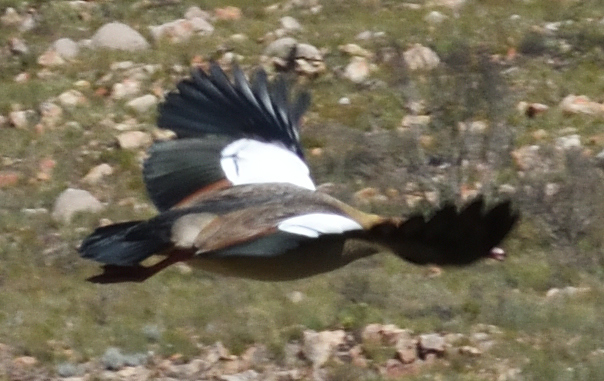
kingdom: Animalia
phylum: Chordata
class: Aves
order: Anseriformes
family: Anatidae
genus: Alopochen
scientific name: Alopochen aegyptiaca
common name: Egyptian goose
